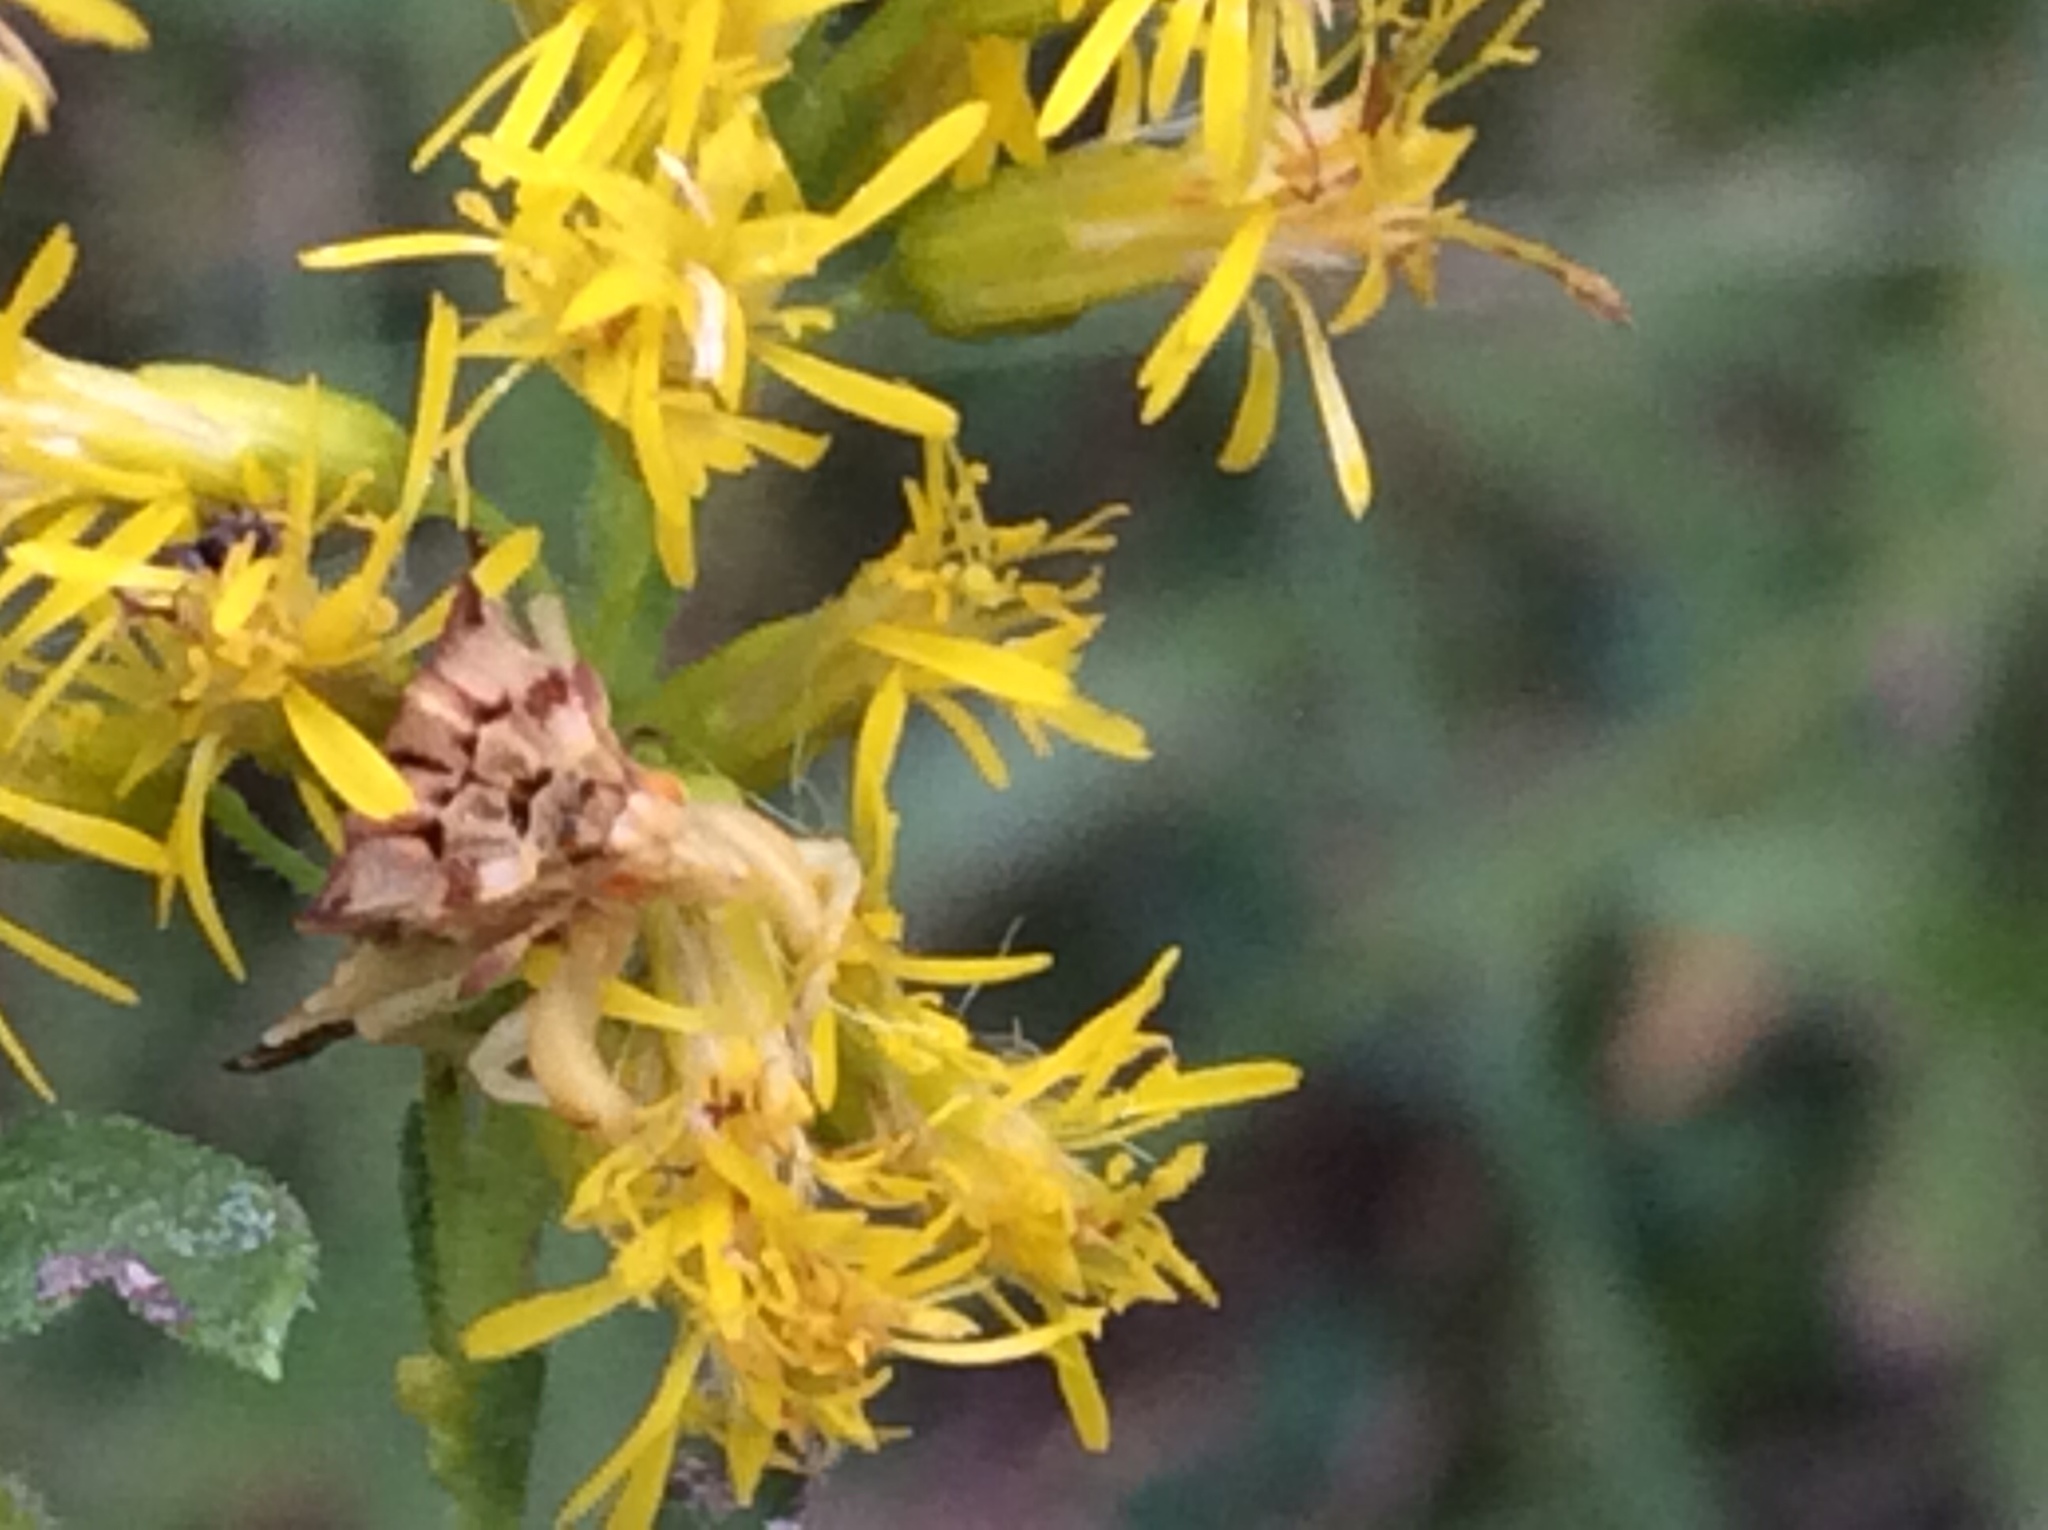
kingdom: Animalia
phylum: Arthropoda
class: Insecta
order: Hemiptera
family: Reduviidae
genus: Phymata
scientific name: Phymata fasciata
